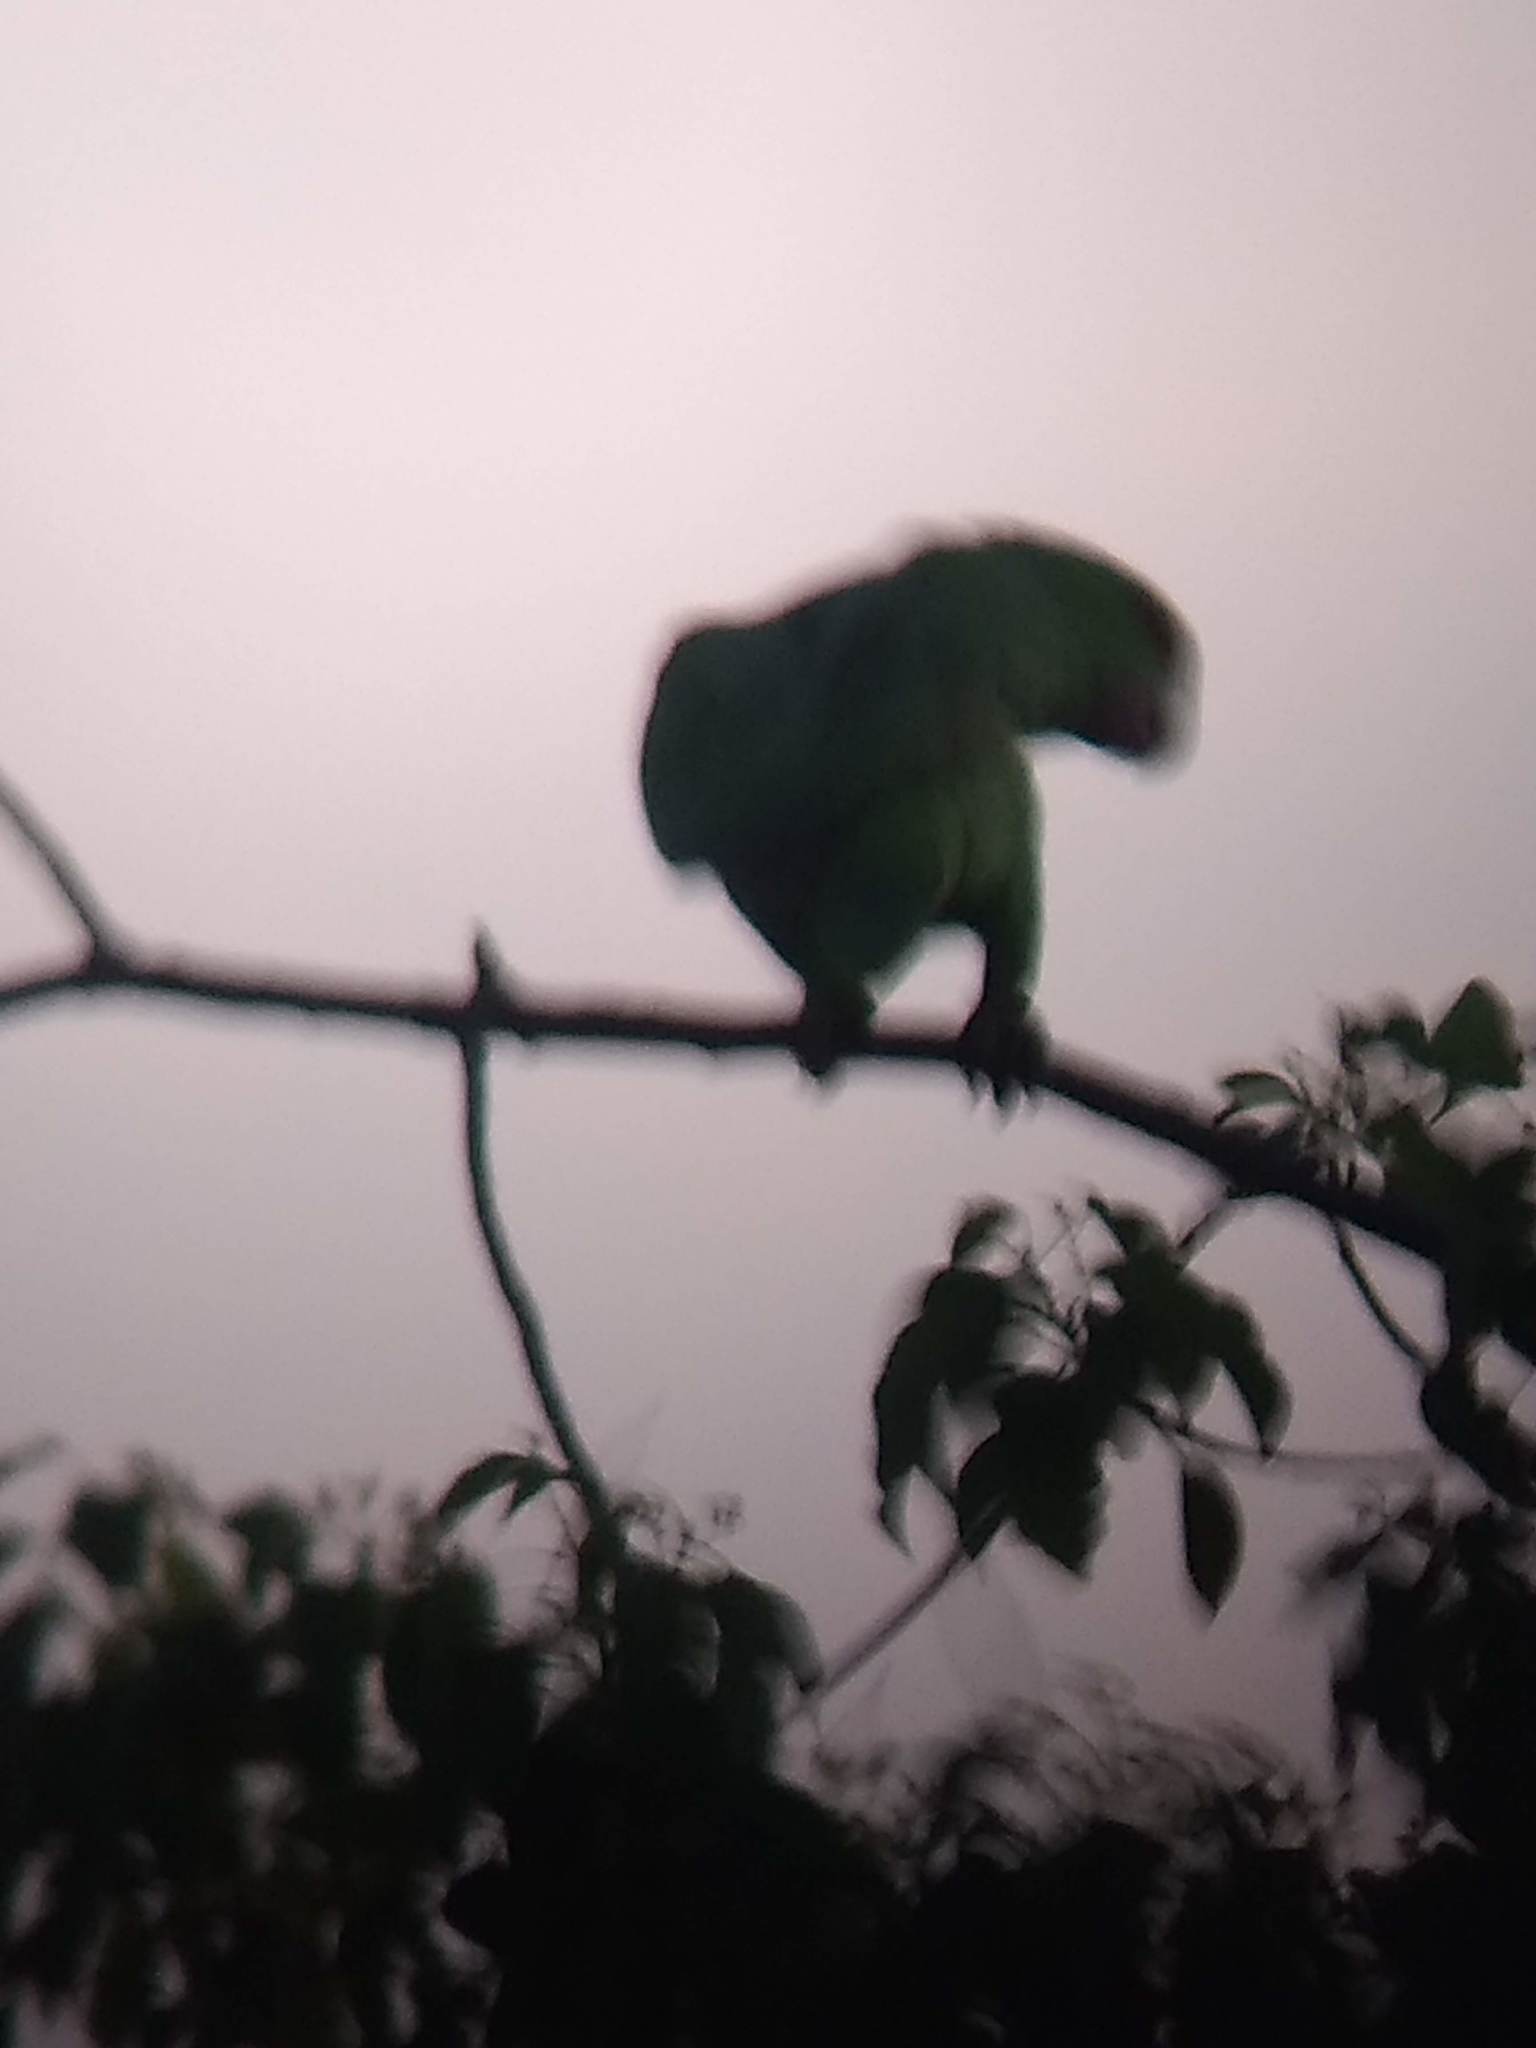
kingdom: Animalia
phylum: Chordata
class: Aves
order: Psittaciformes
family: Psittacidae
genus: Amazona
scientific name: Amazona finschi
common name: Lilac-crowned amazon
